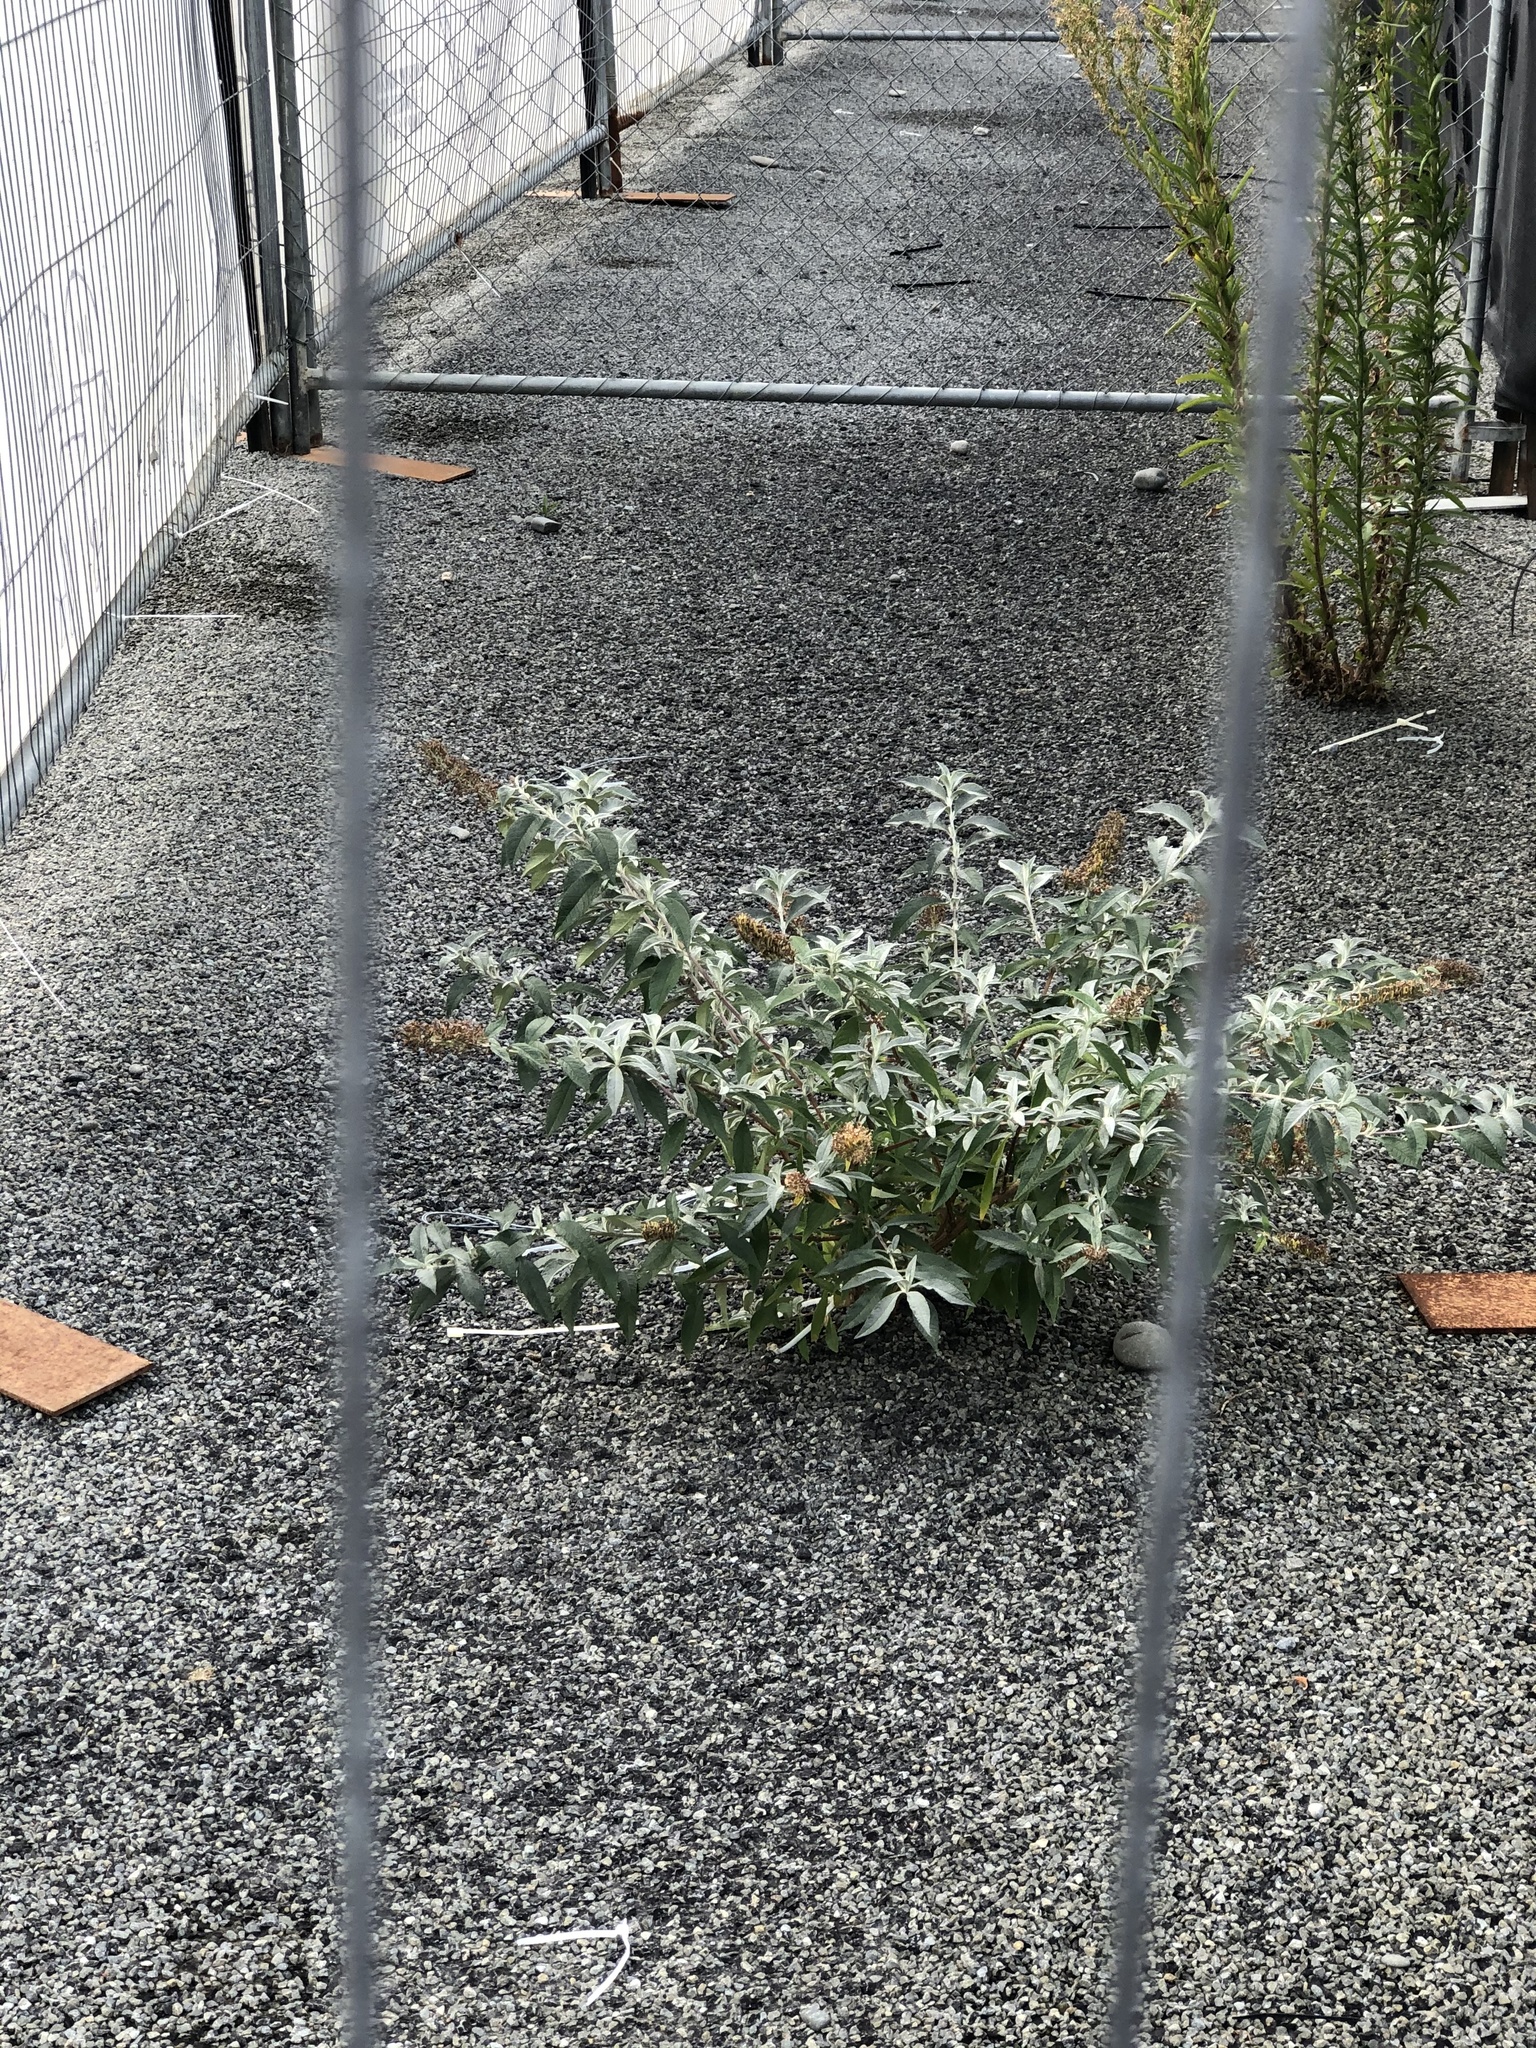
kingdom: Plantae
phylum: Tracheophyta
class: Magnoliopsida
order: Lamiales
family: Scrophulariaceae
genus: Buddleja
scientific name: Buddleja davidii
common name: Butterfly-bush
